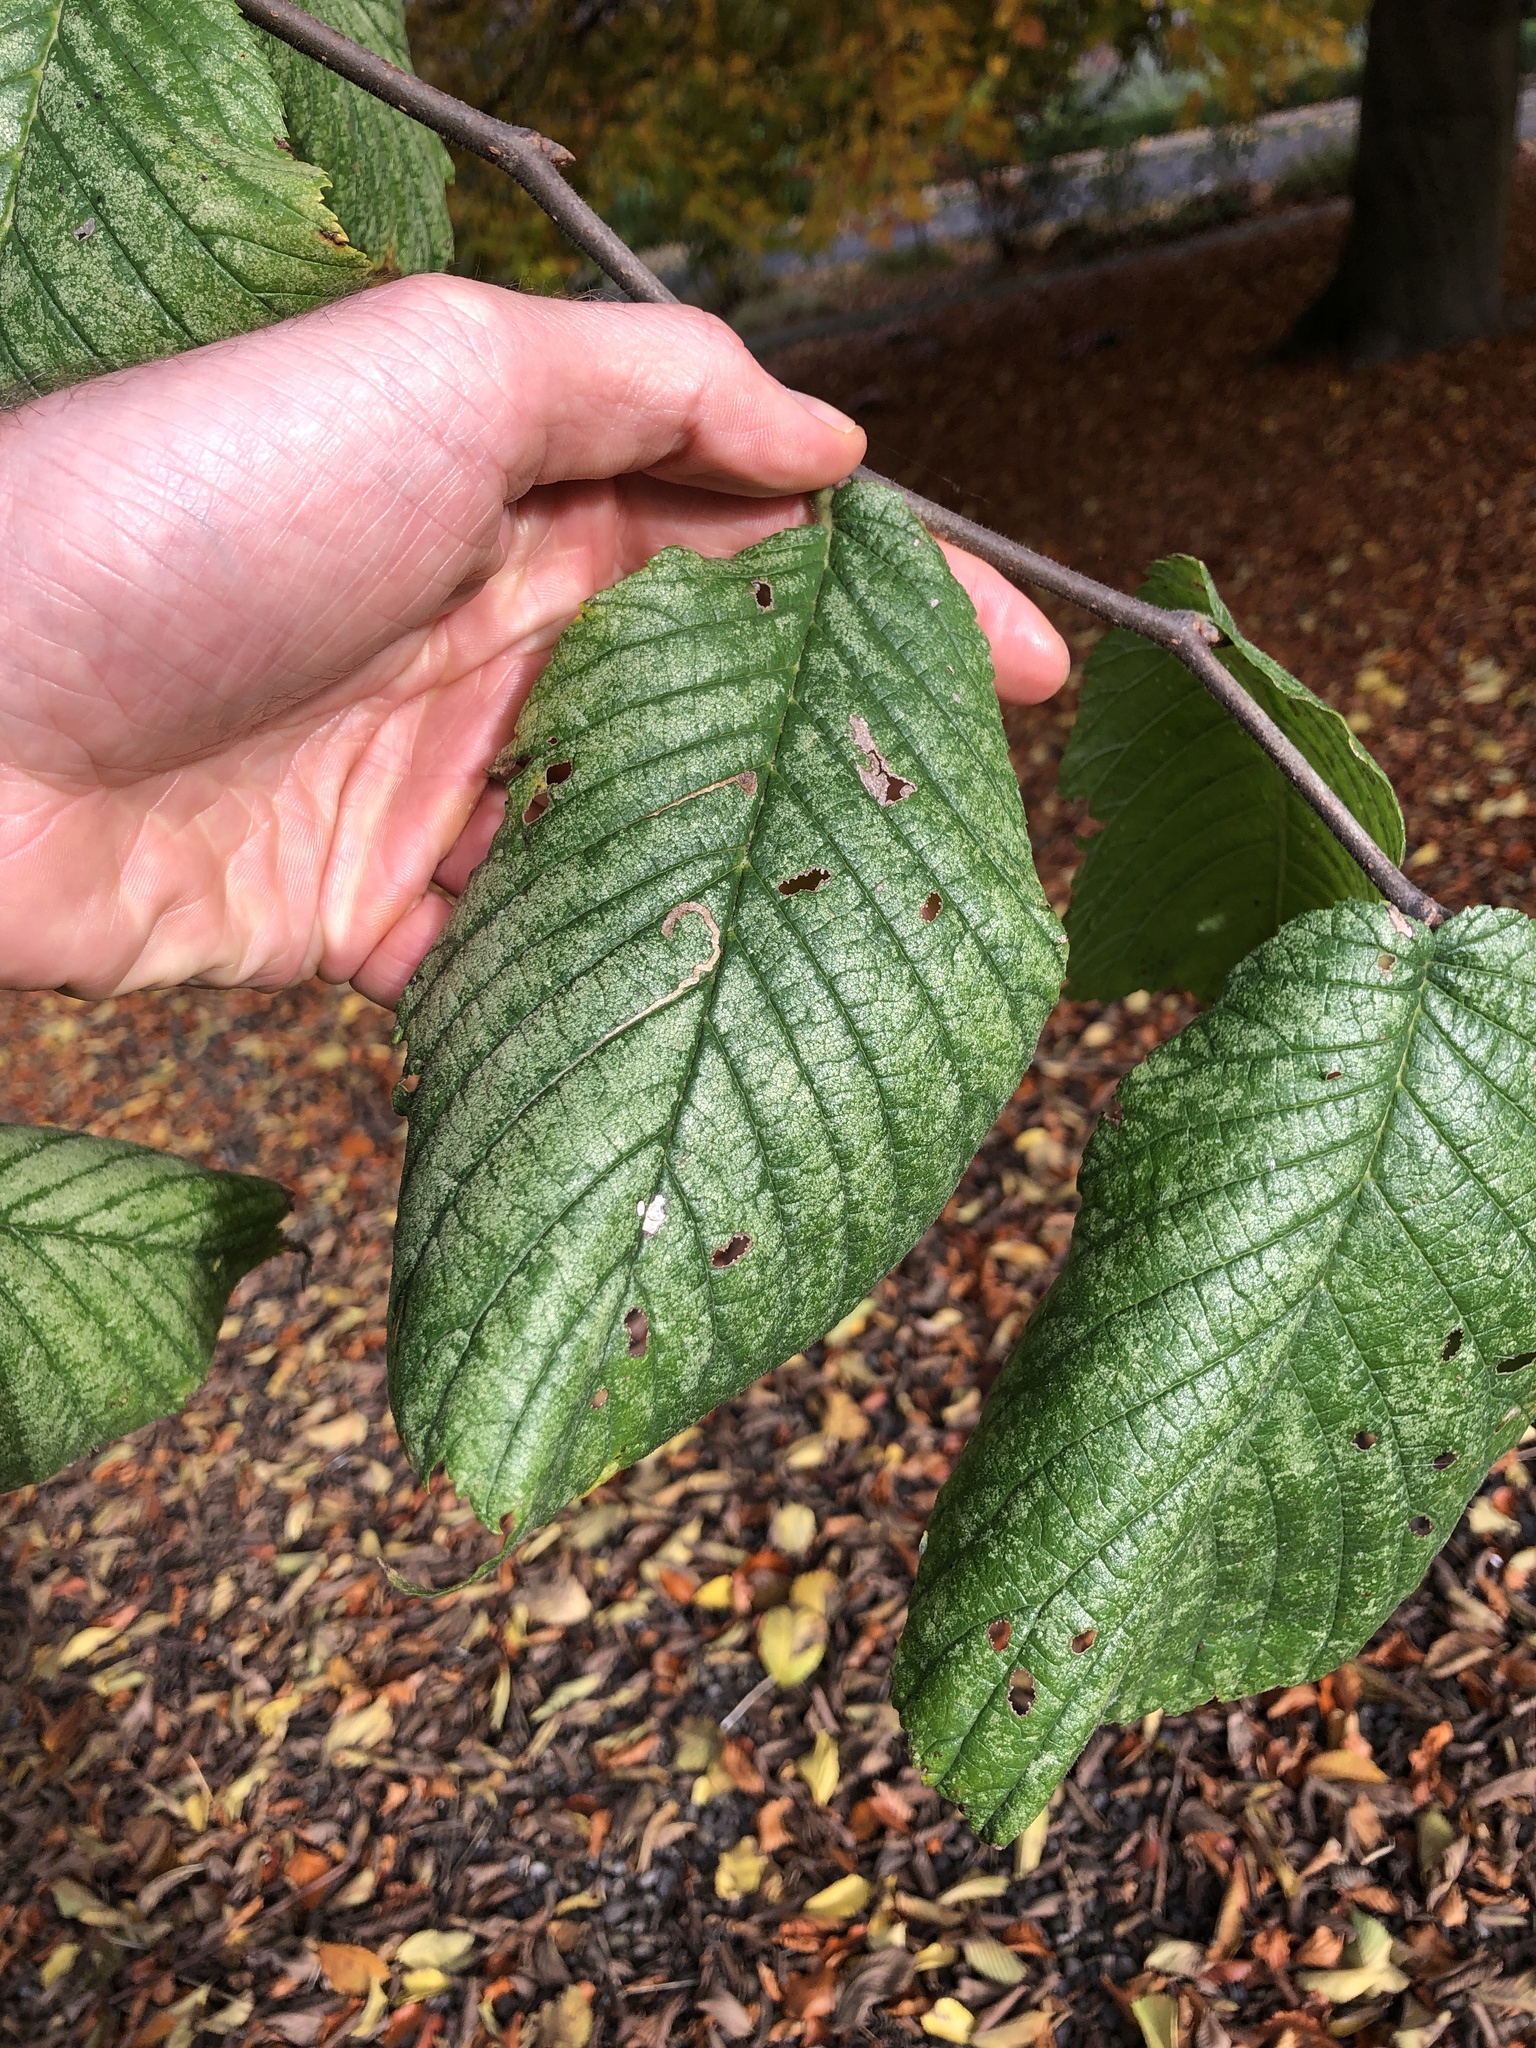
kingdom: Plantae
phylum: Tracheophyta
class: Magnoliopsida
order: Rosales
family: Ulmaceae
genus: Ulmus
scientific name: Ulmus glabra
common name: Wych elm
